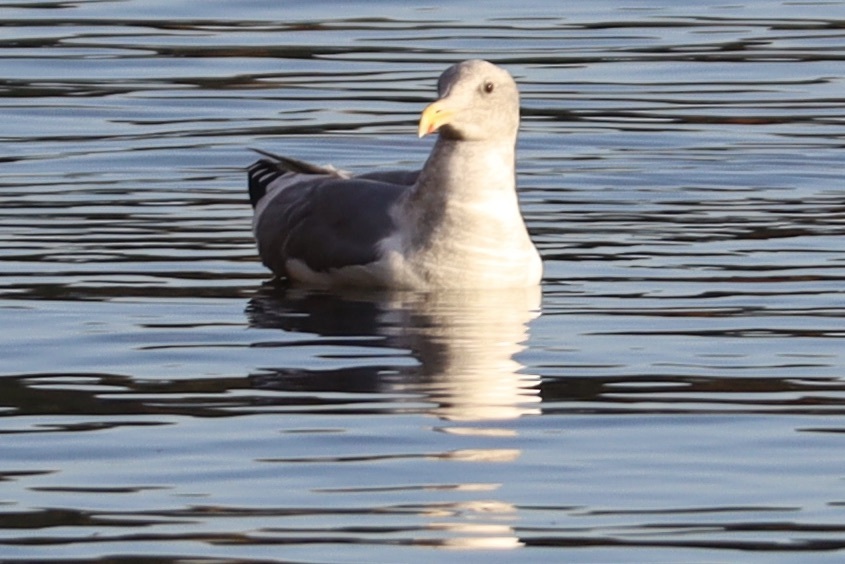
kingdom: Animalia
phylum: Chordata
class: Aves
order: Charadriiformes
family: Laridae
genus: Larus
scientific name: Larus
